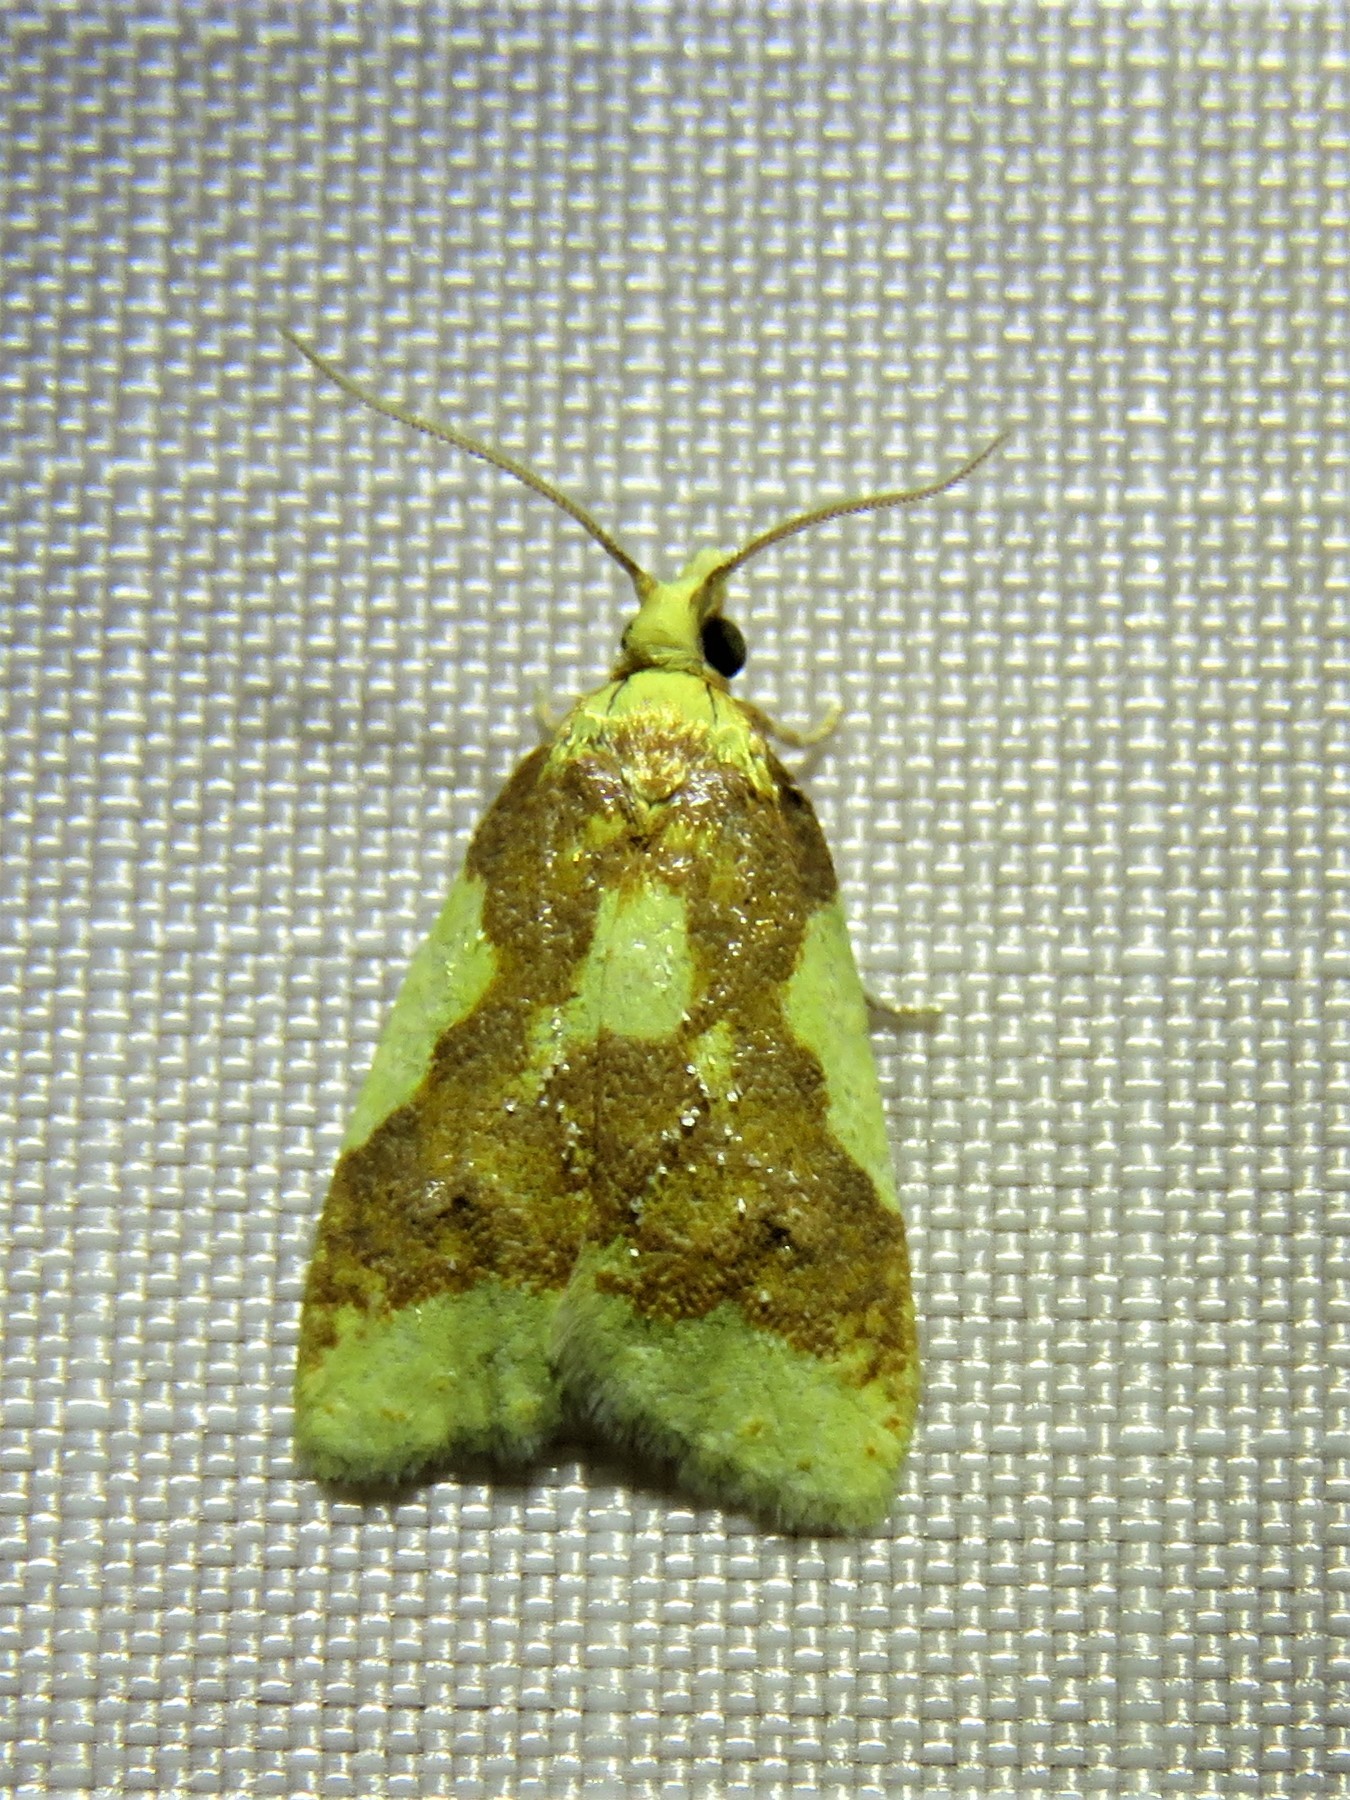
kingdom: Animalia
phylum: Arthropoda
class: Insecta
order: Lepidoptera
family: Tortricidae
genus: Sparganothis
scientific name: Sparganothis pulcherrimana
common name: Beautiful sparganothis
